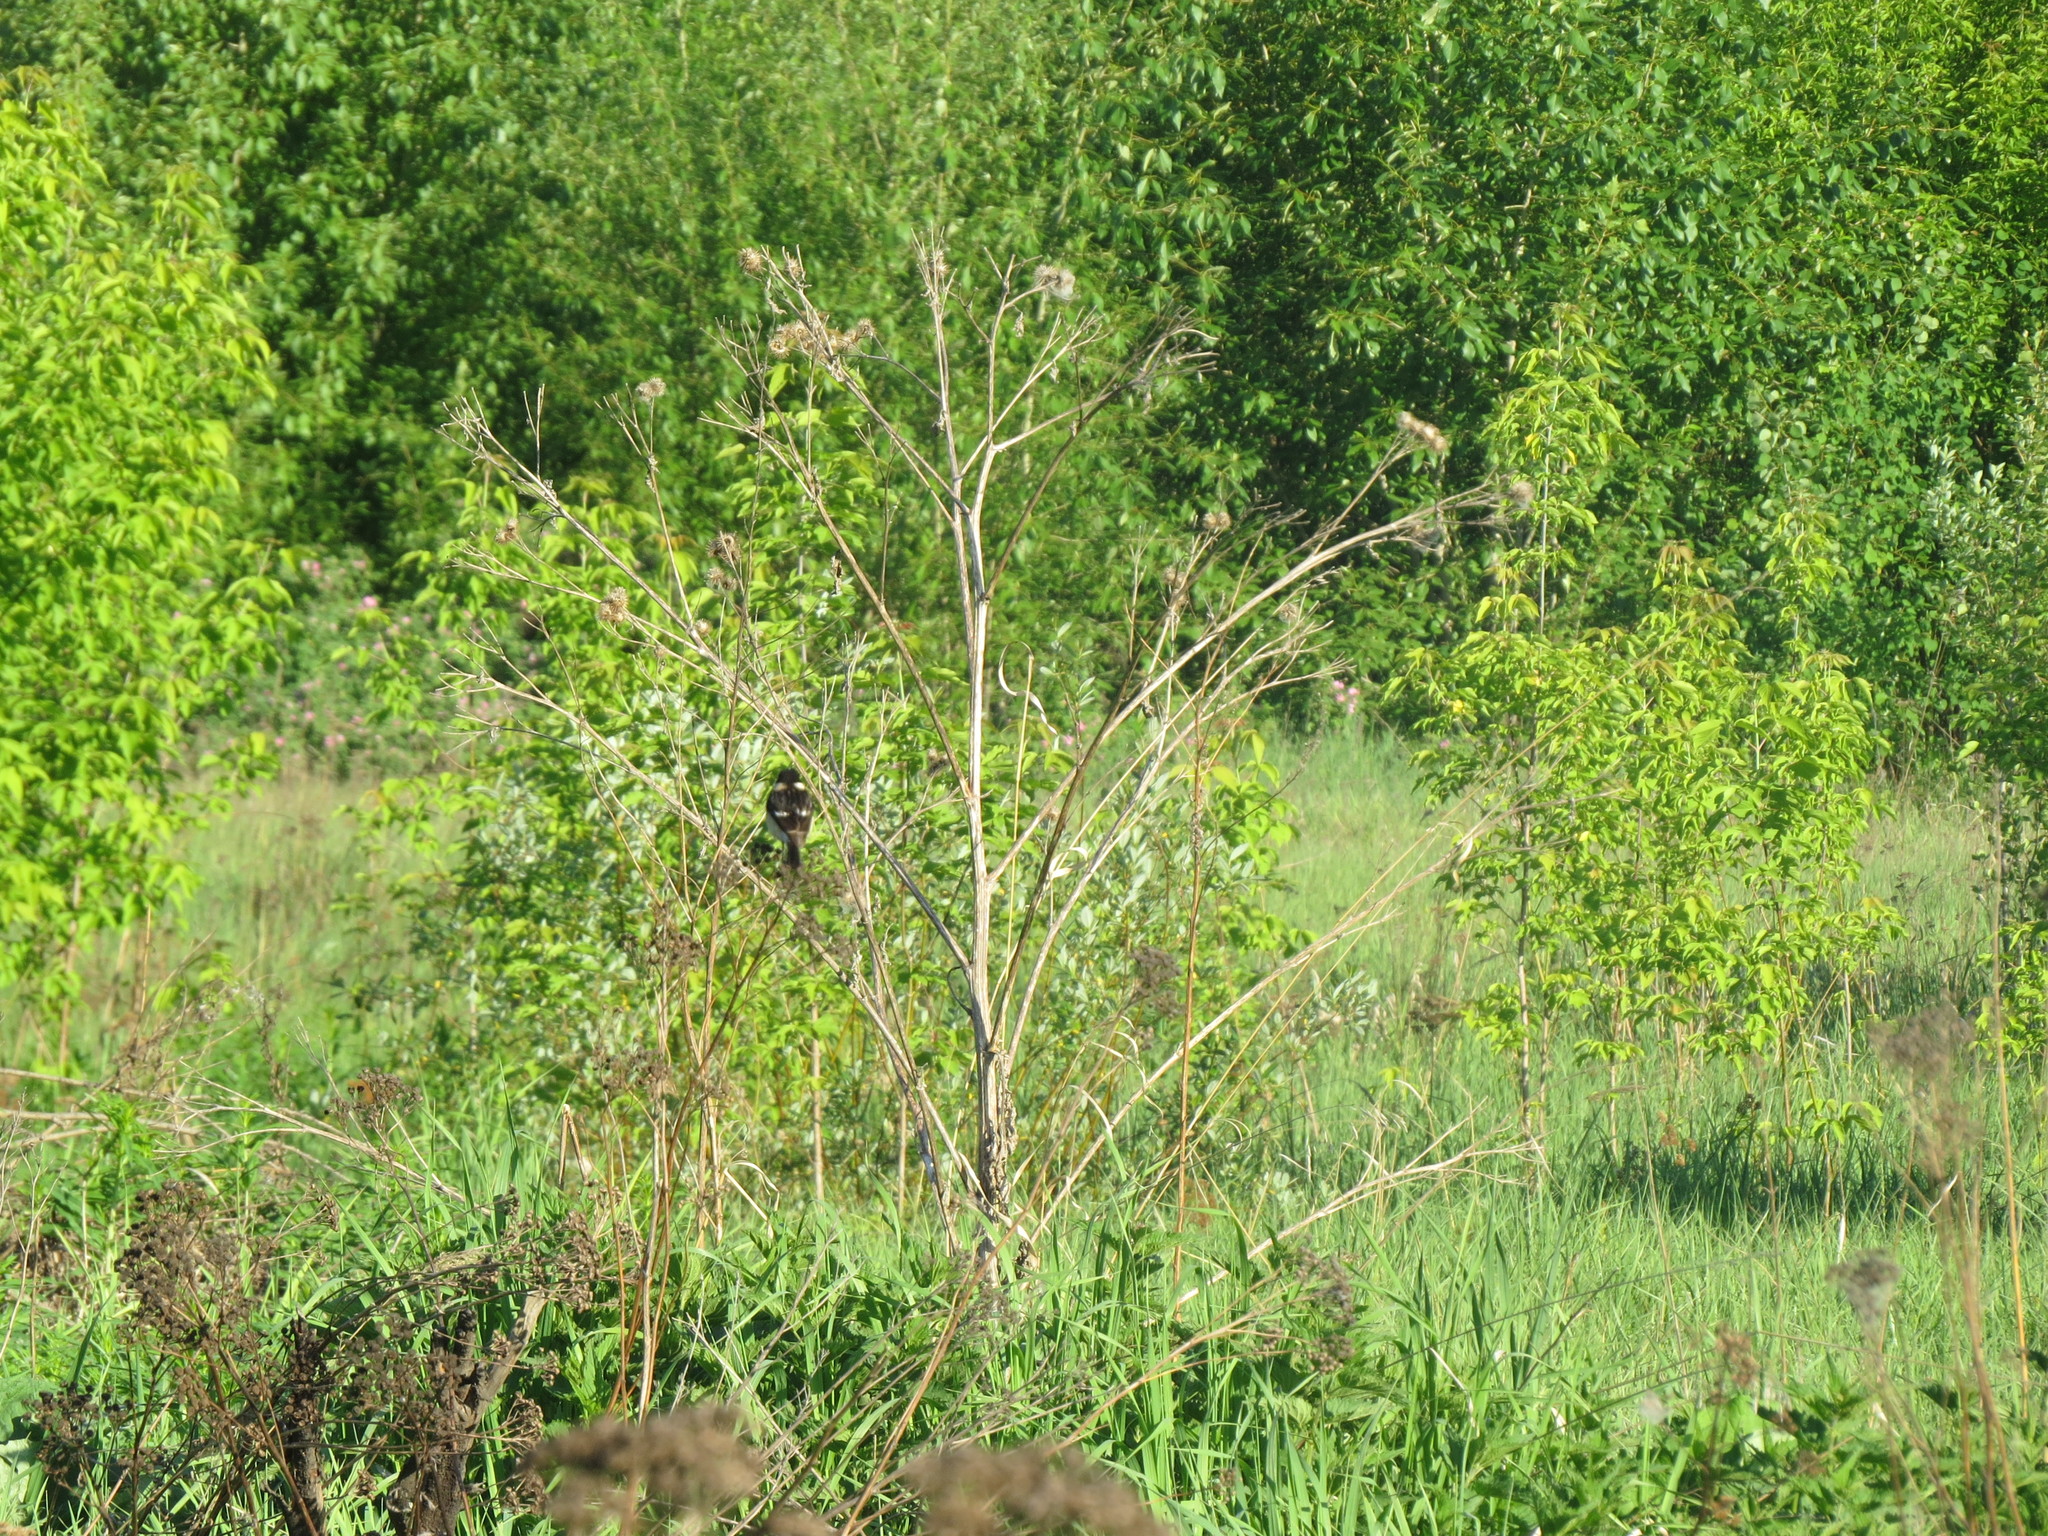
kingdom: Animalia
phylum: Chordata
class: Aves
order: Passeriformes
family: Muscicapidae
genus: Saxicola
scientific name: Saxicola maurus
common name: Siberian stonechat
